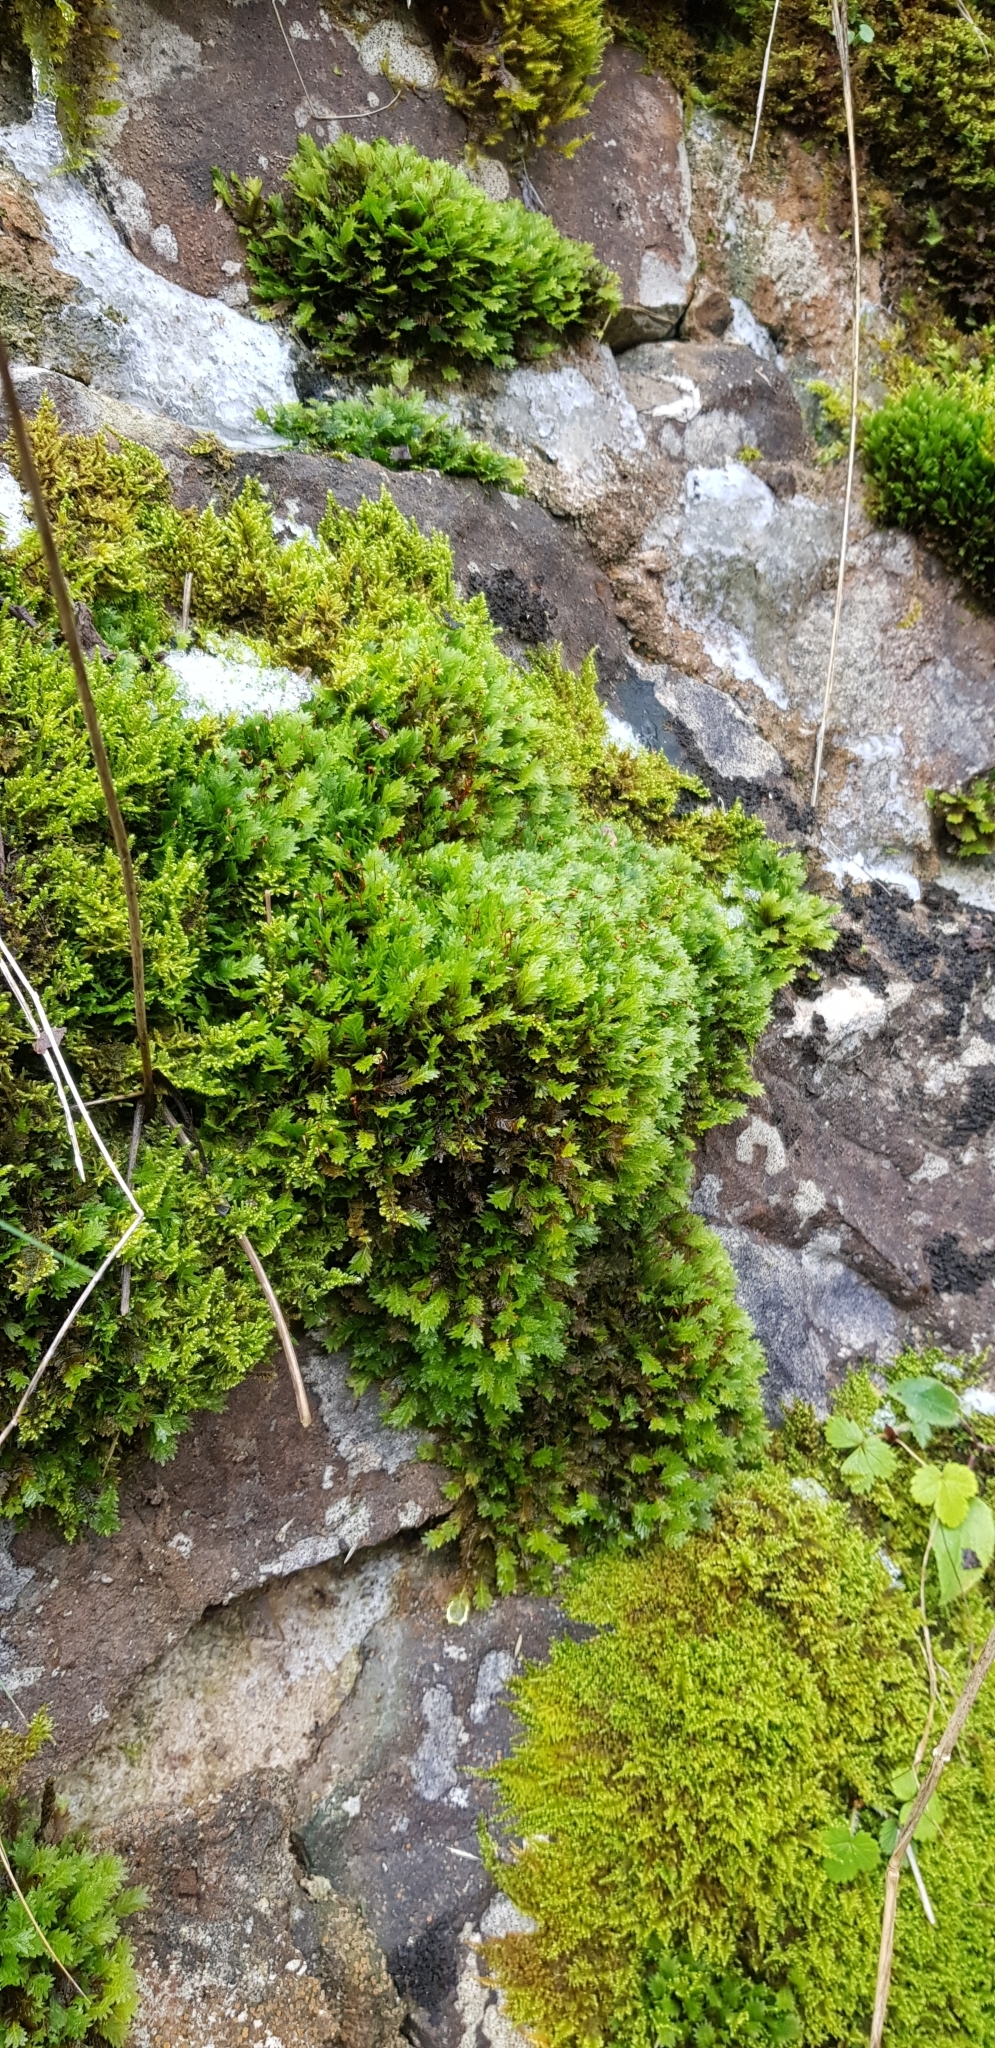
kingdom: Plantae
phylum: Bryophyta
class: Bryopsida
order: Dicranales
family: Fissidentaceae
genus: Fissidens
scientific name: Fissidens dubius
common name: Rock pocket moss
